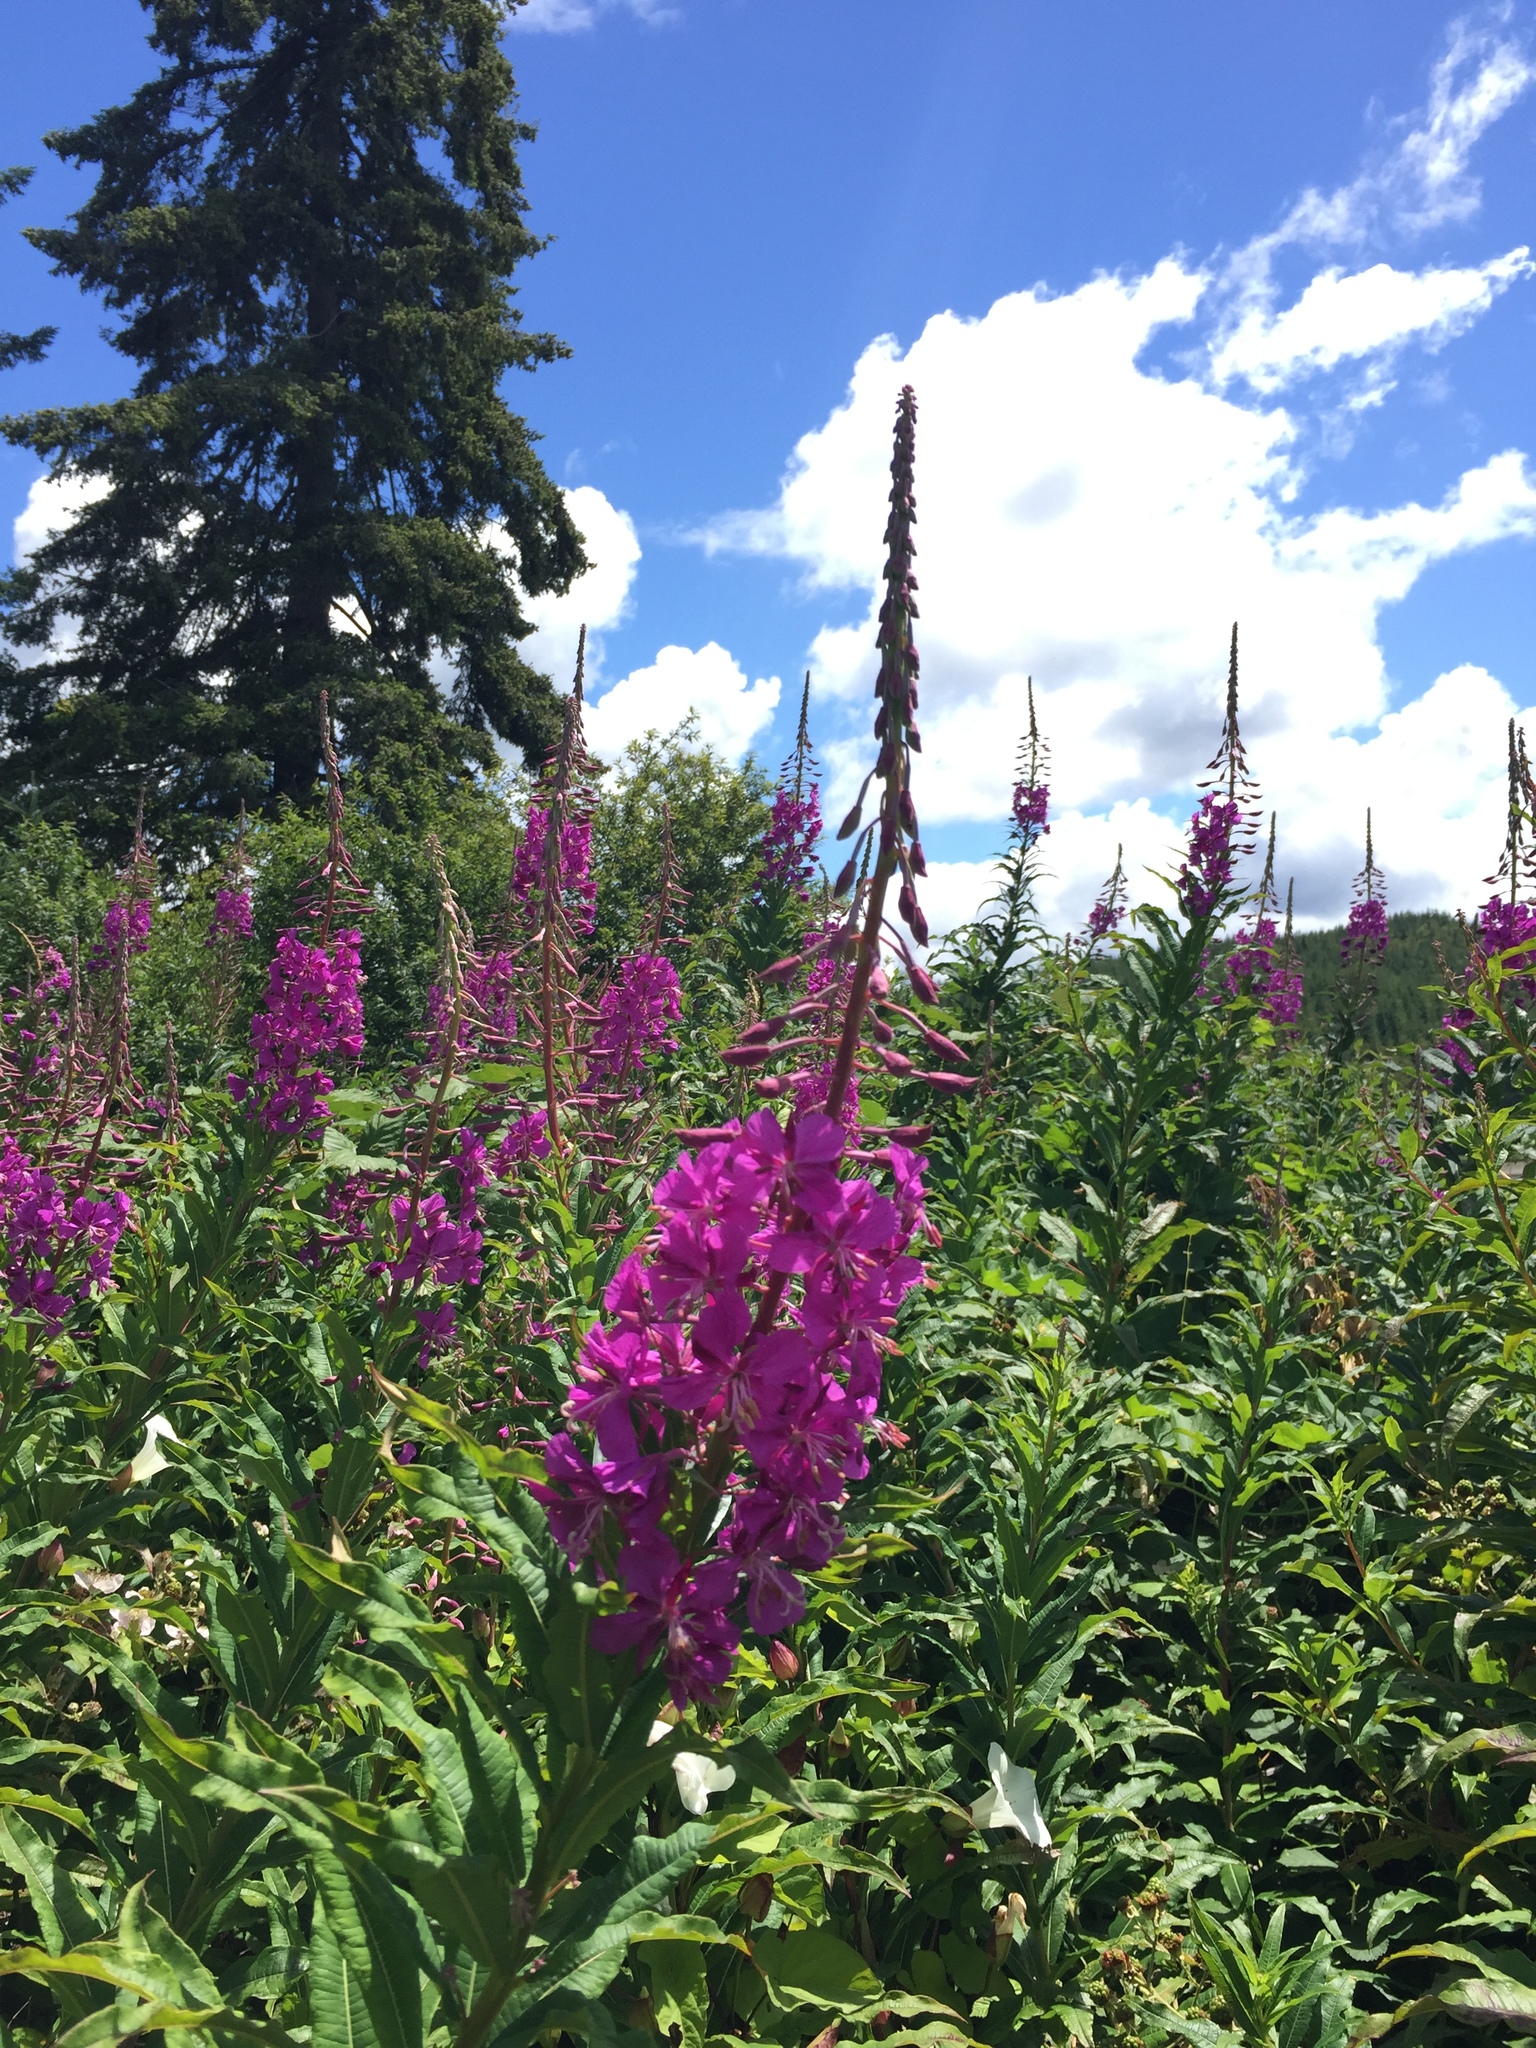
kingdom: Plantae
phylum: Tracheophyta
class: Magnoliopsida
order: Myrtales
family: Onagraceae
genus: Chamaenerion
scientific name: Chamaenerion angustifolium
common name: Fireweed
